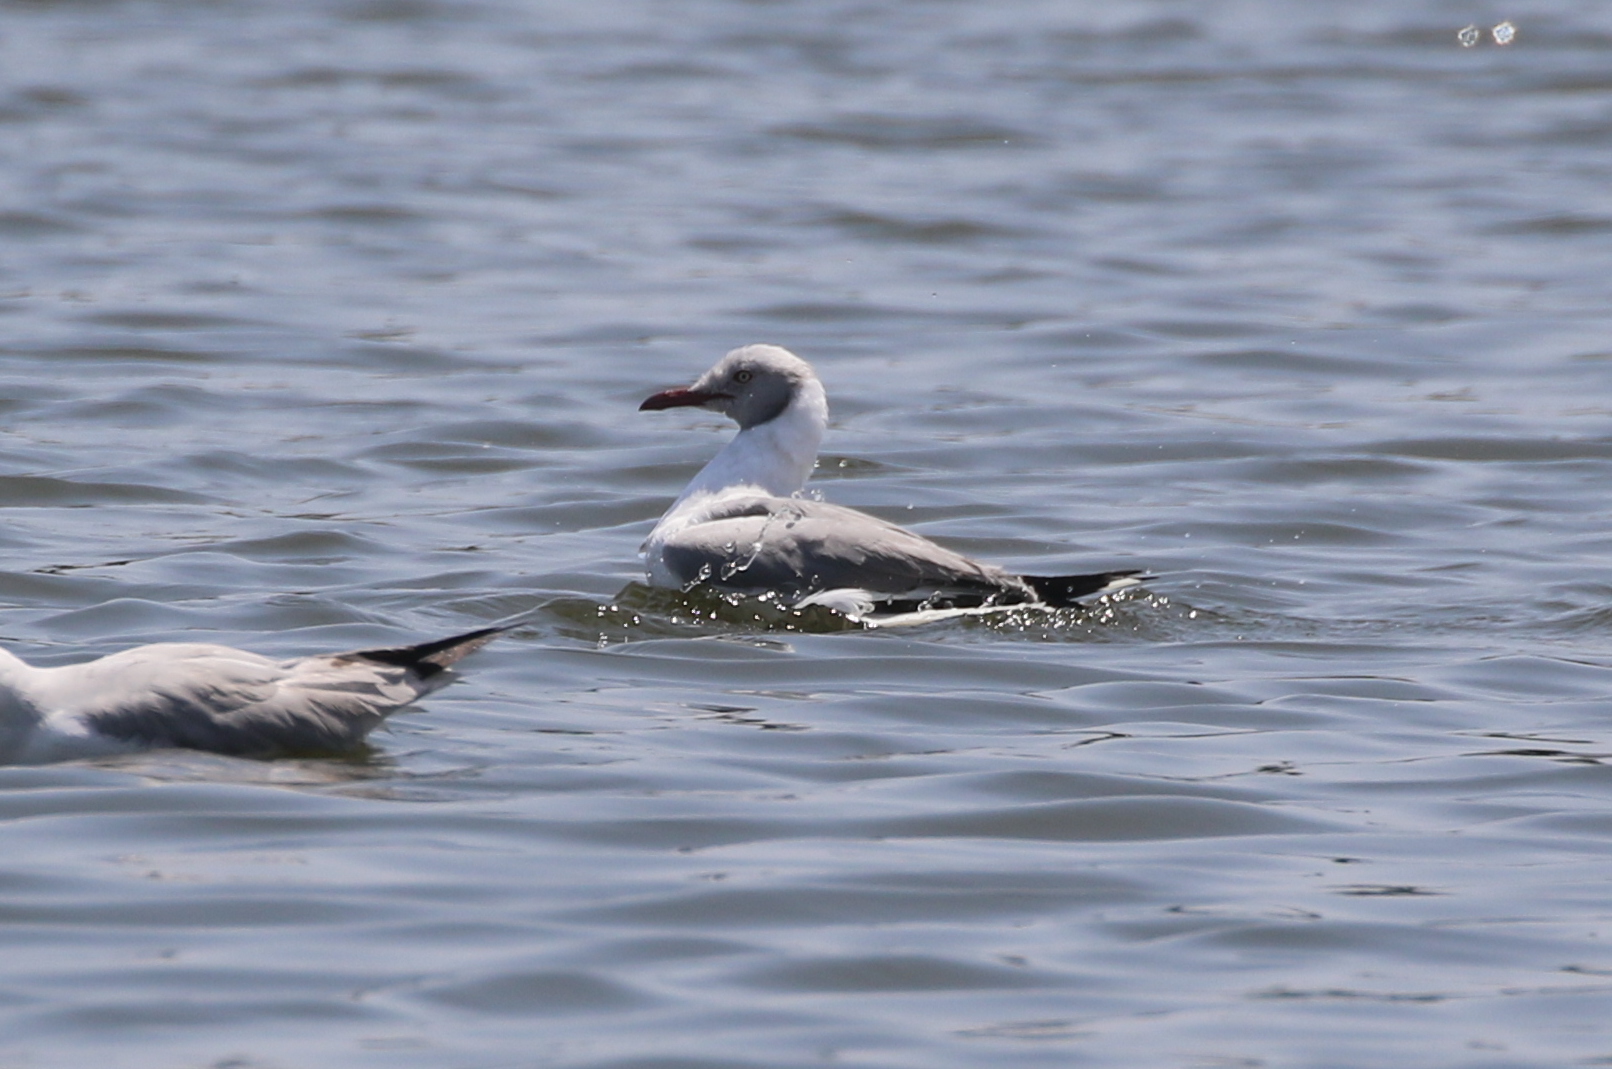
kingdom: Animalia
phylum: Chordata
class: Aves
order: Charadriiformes
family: Laridae
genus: Chroicocephalus
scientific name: Chroicocephalus cirrocephalus
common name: Grey-headed gull
